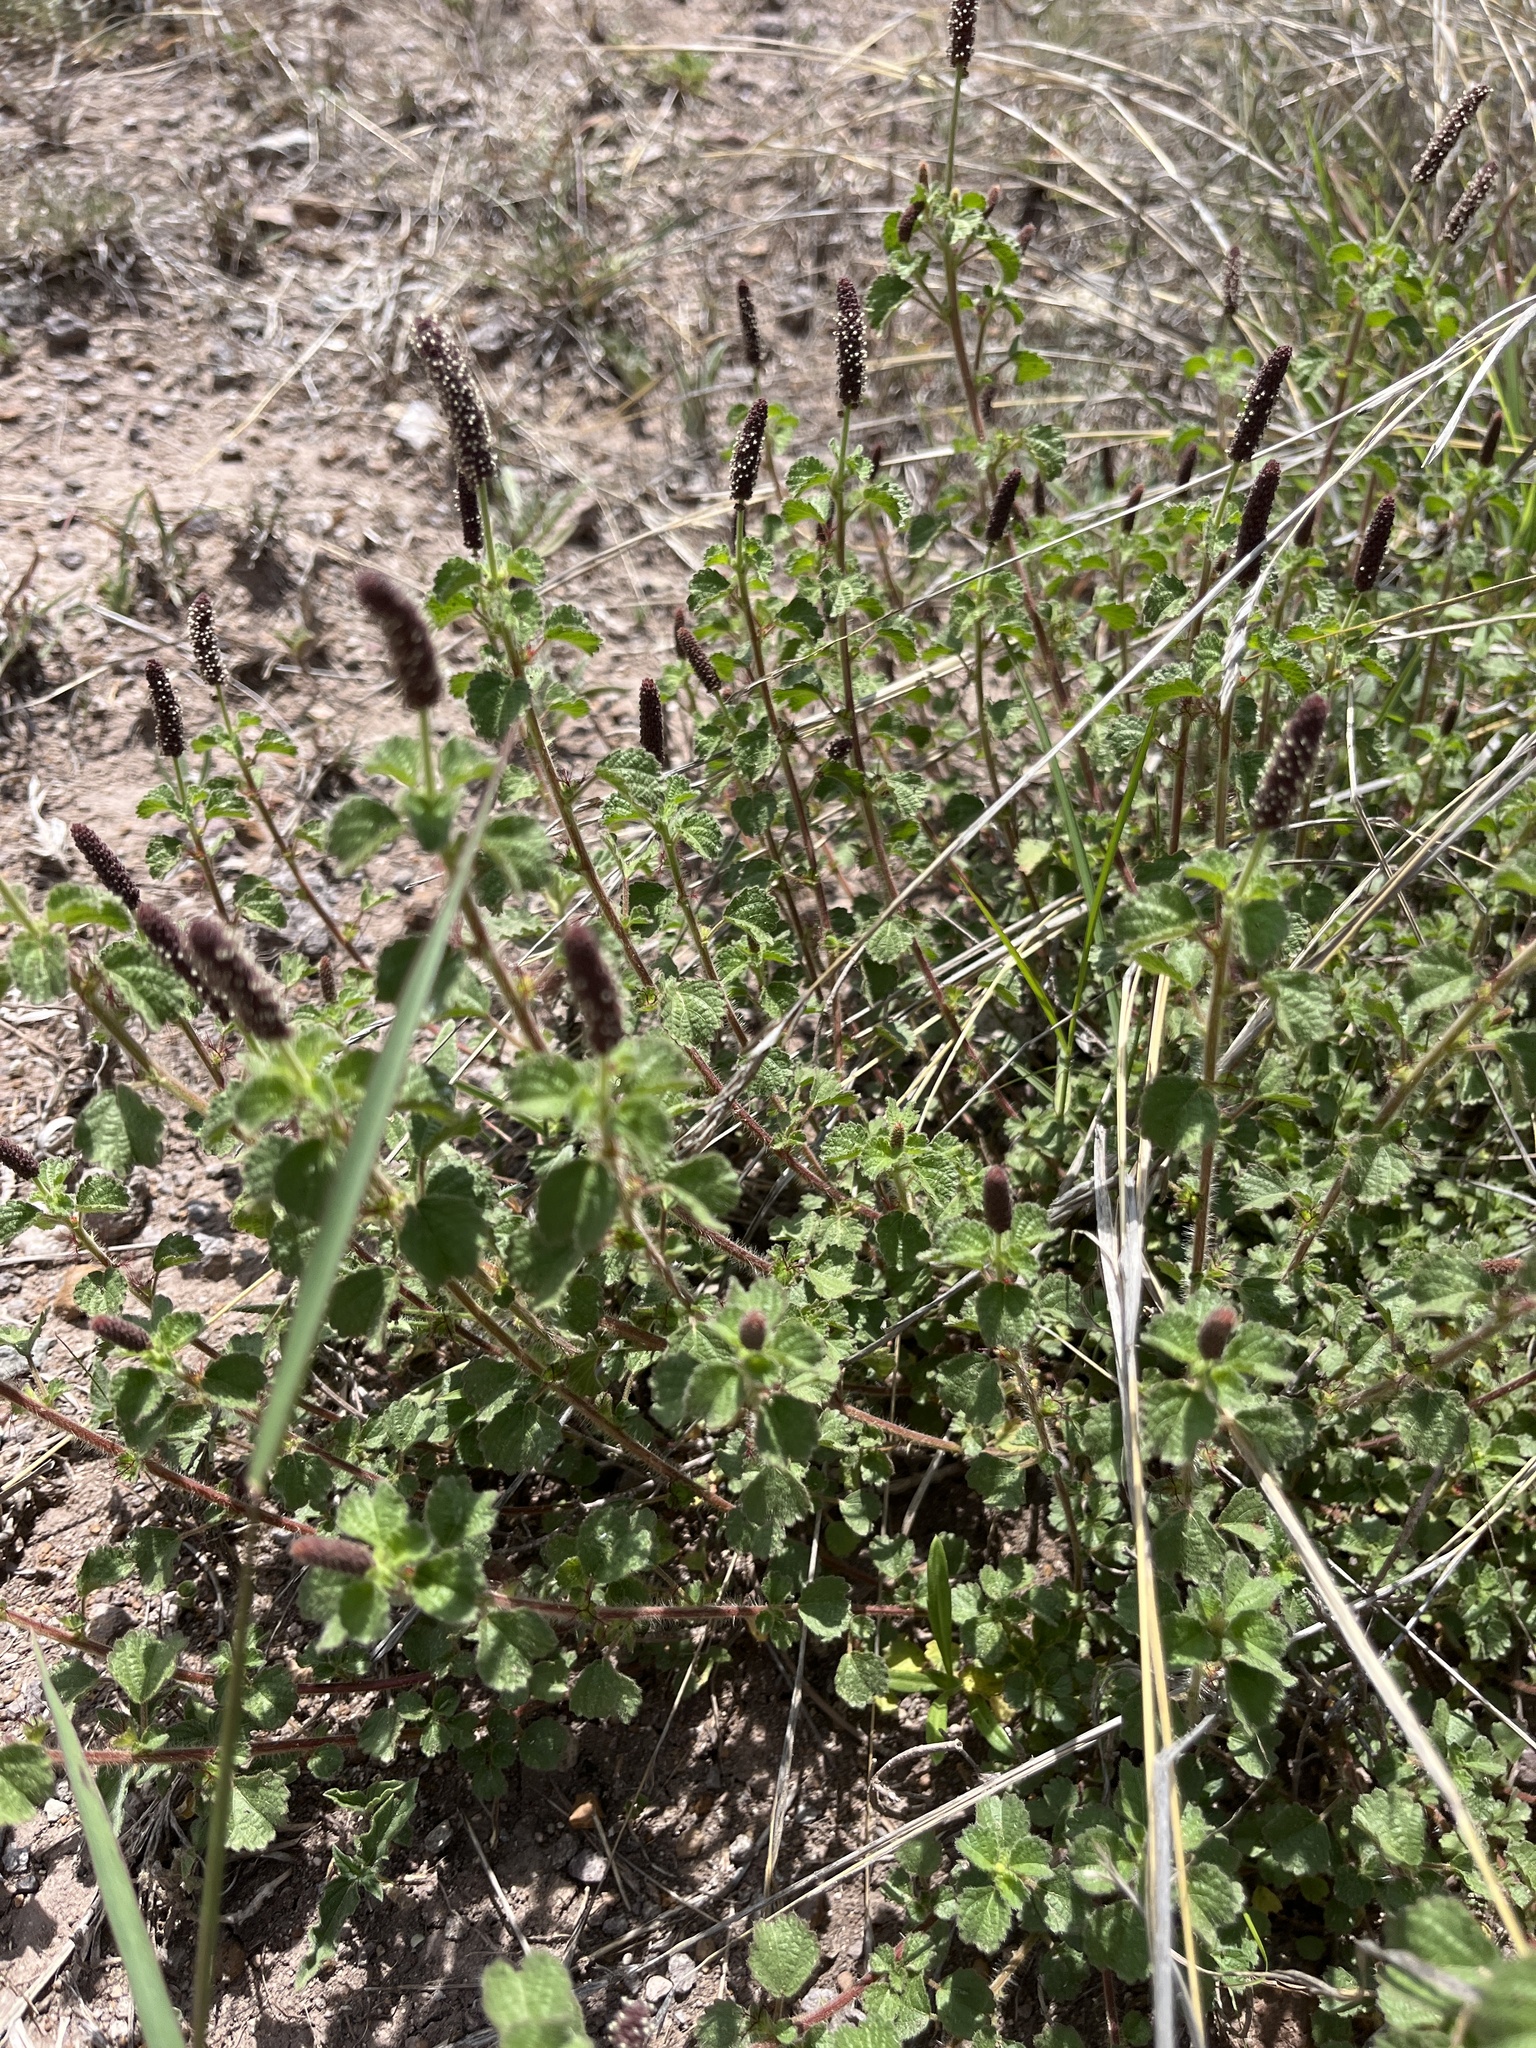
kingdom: Plantae
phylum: Tracheophyta
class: Magnoliopsida
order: Malpighiales
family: Euphorbiaceae
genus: Acalypha
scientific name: Acalypha monostachya
